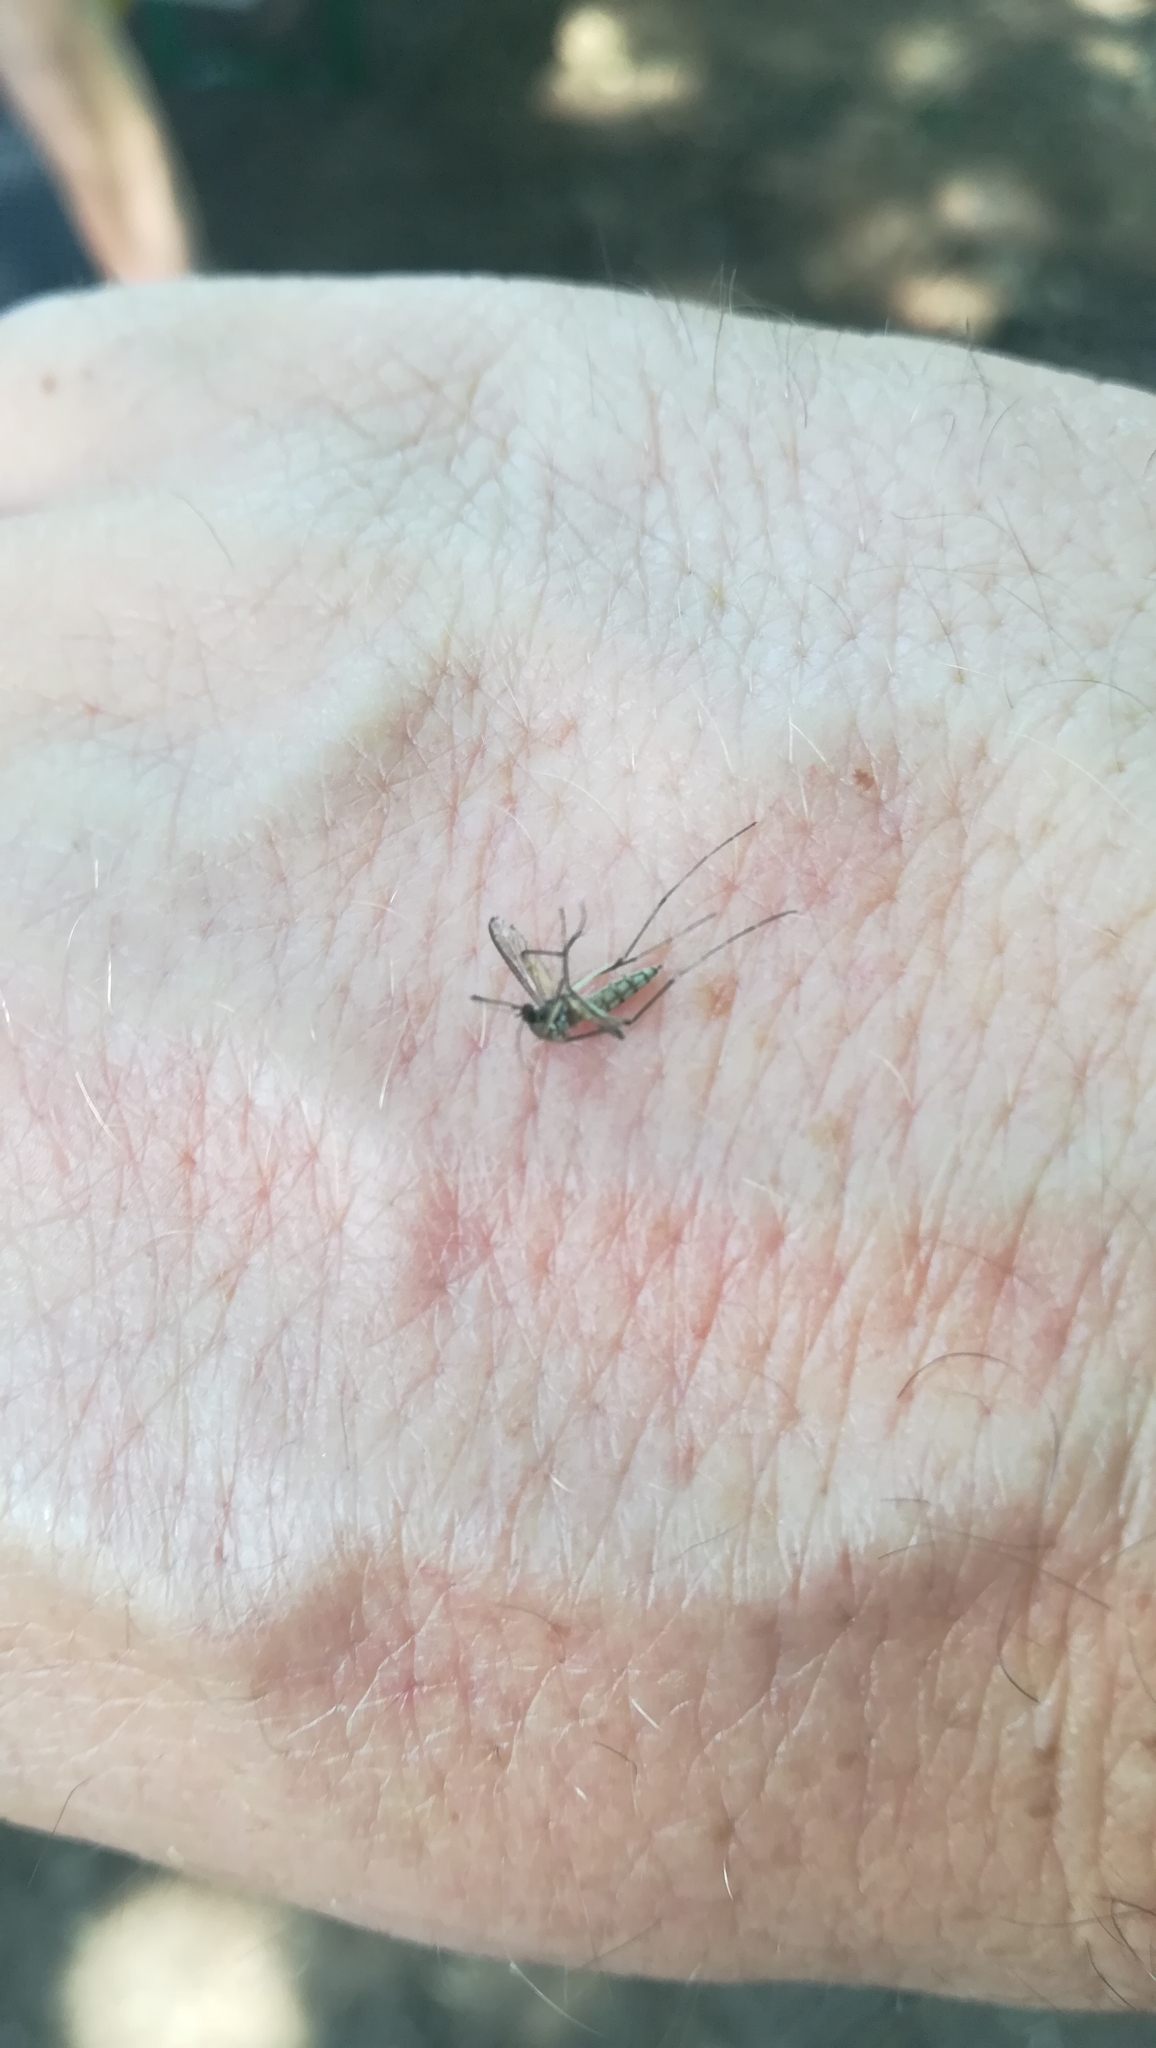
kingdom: Animalia
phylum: Arthropoda
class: Insecta
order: Diptera
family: Culicidae
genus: Aedes
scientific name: Aedes vexans
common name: Inland floodwater mosquito
